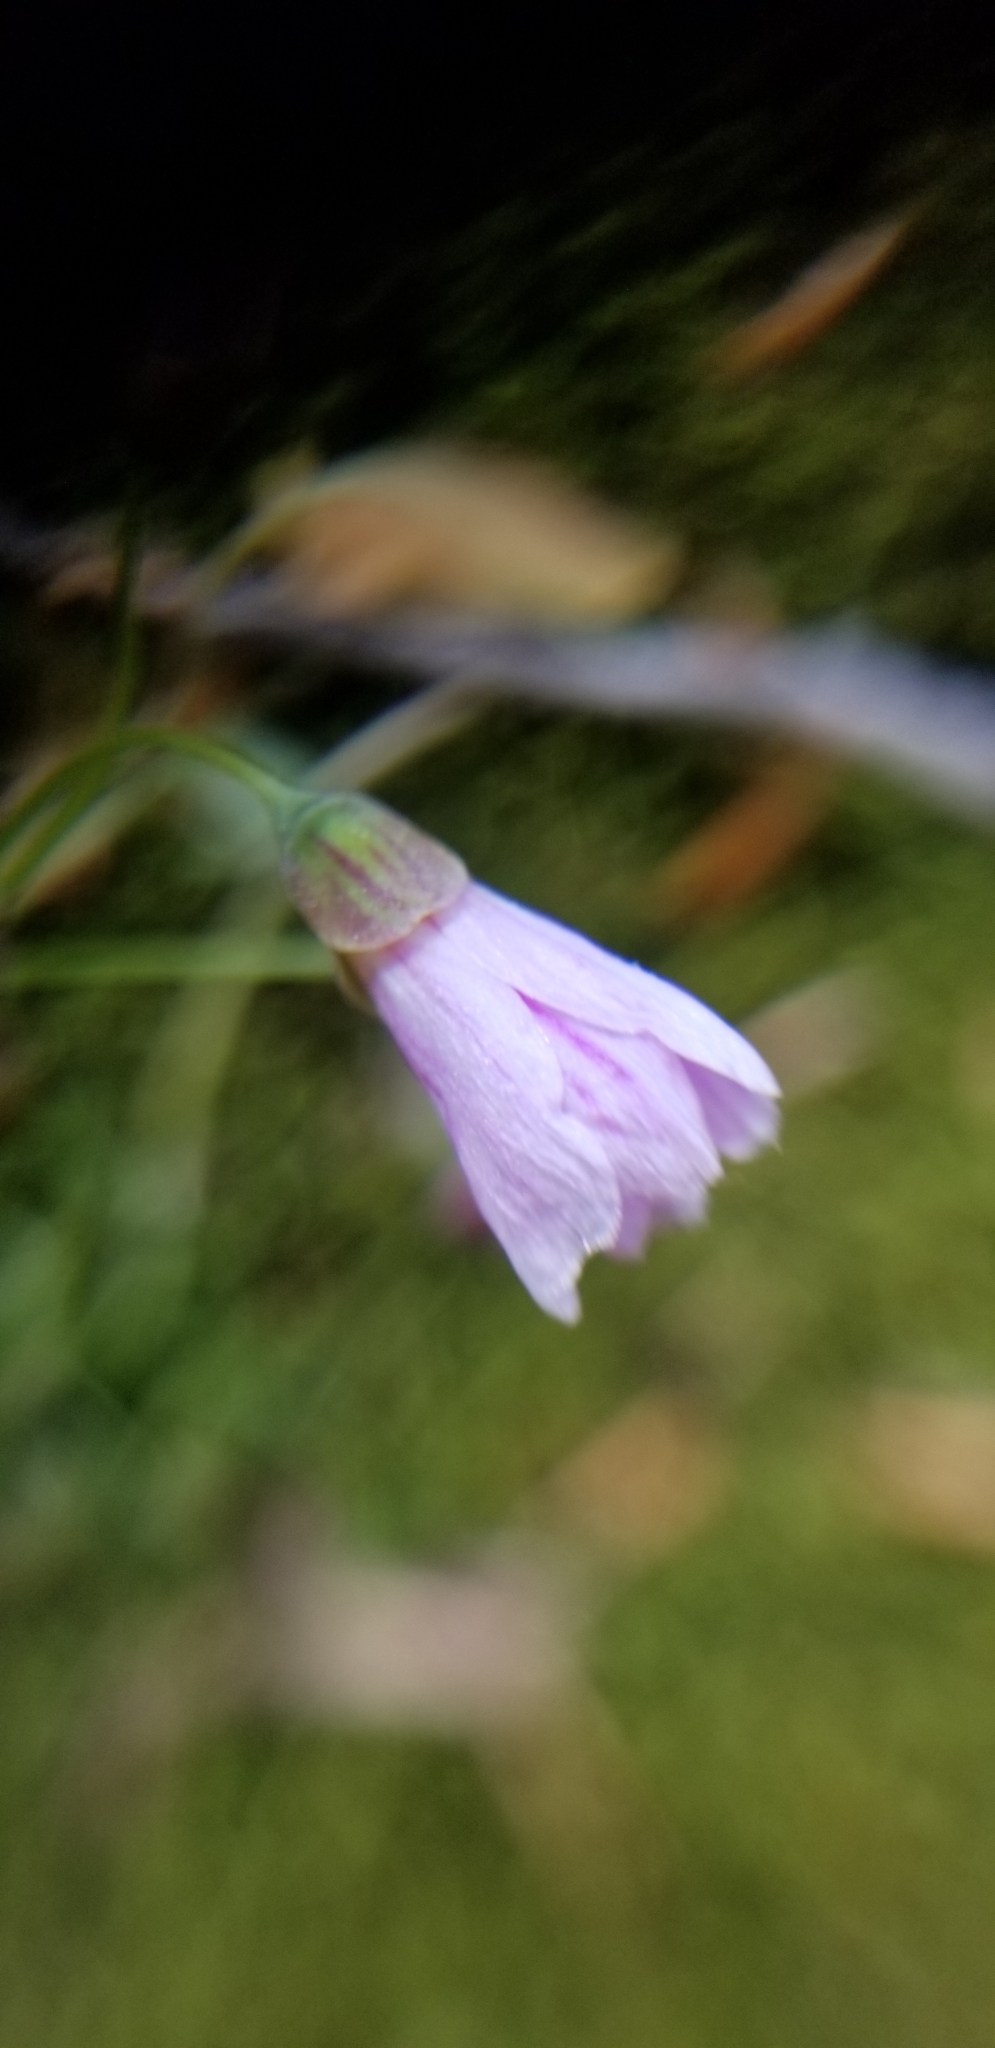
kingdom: Plantae
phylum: Tracheophyta
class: Magnoliopsida
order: Caryophyllales
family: Montiaceae
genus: Claytonia
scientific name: Claytonia virginica
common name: Virginia springbeauty
